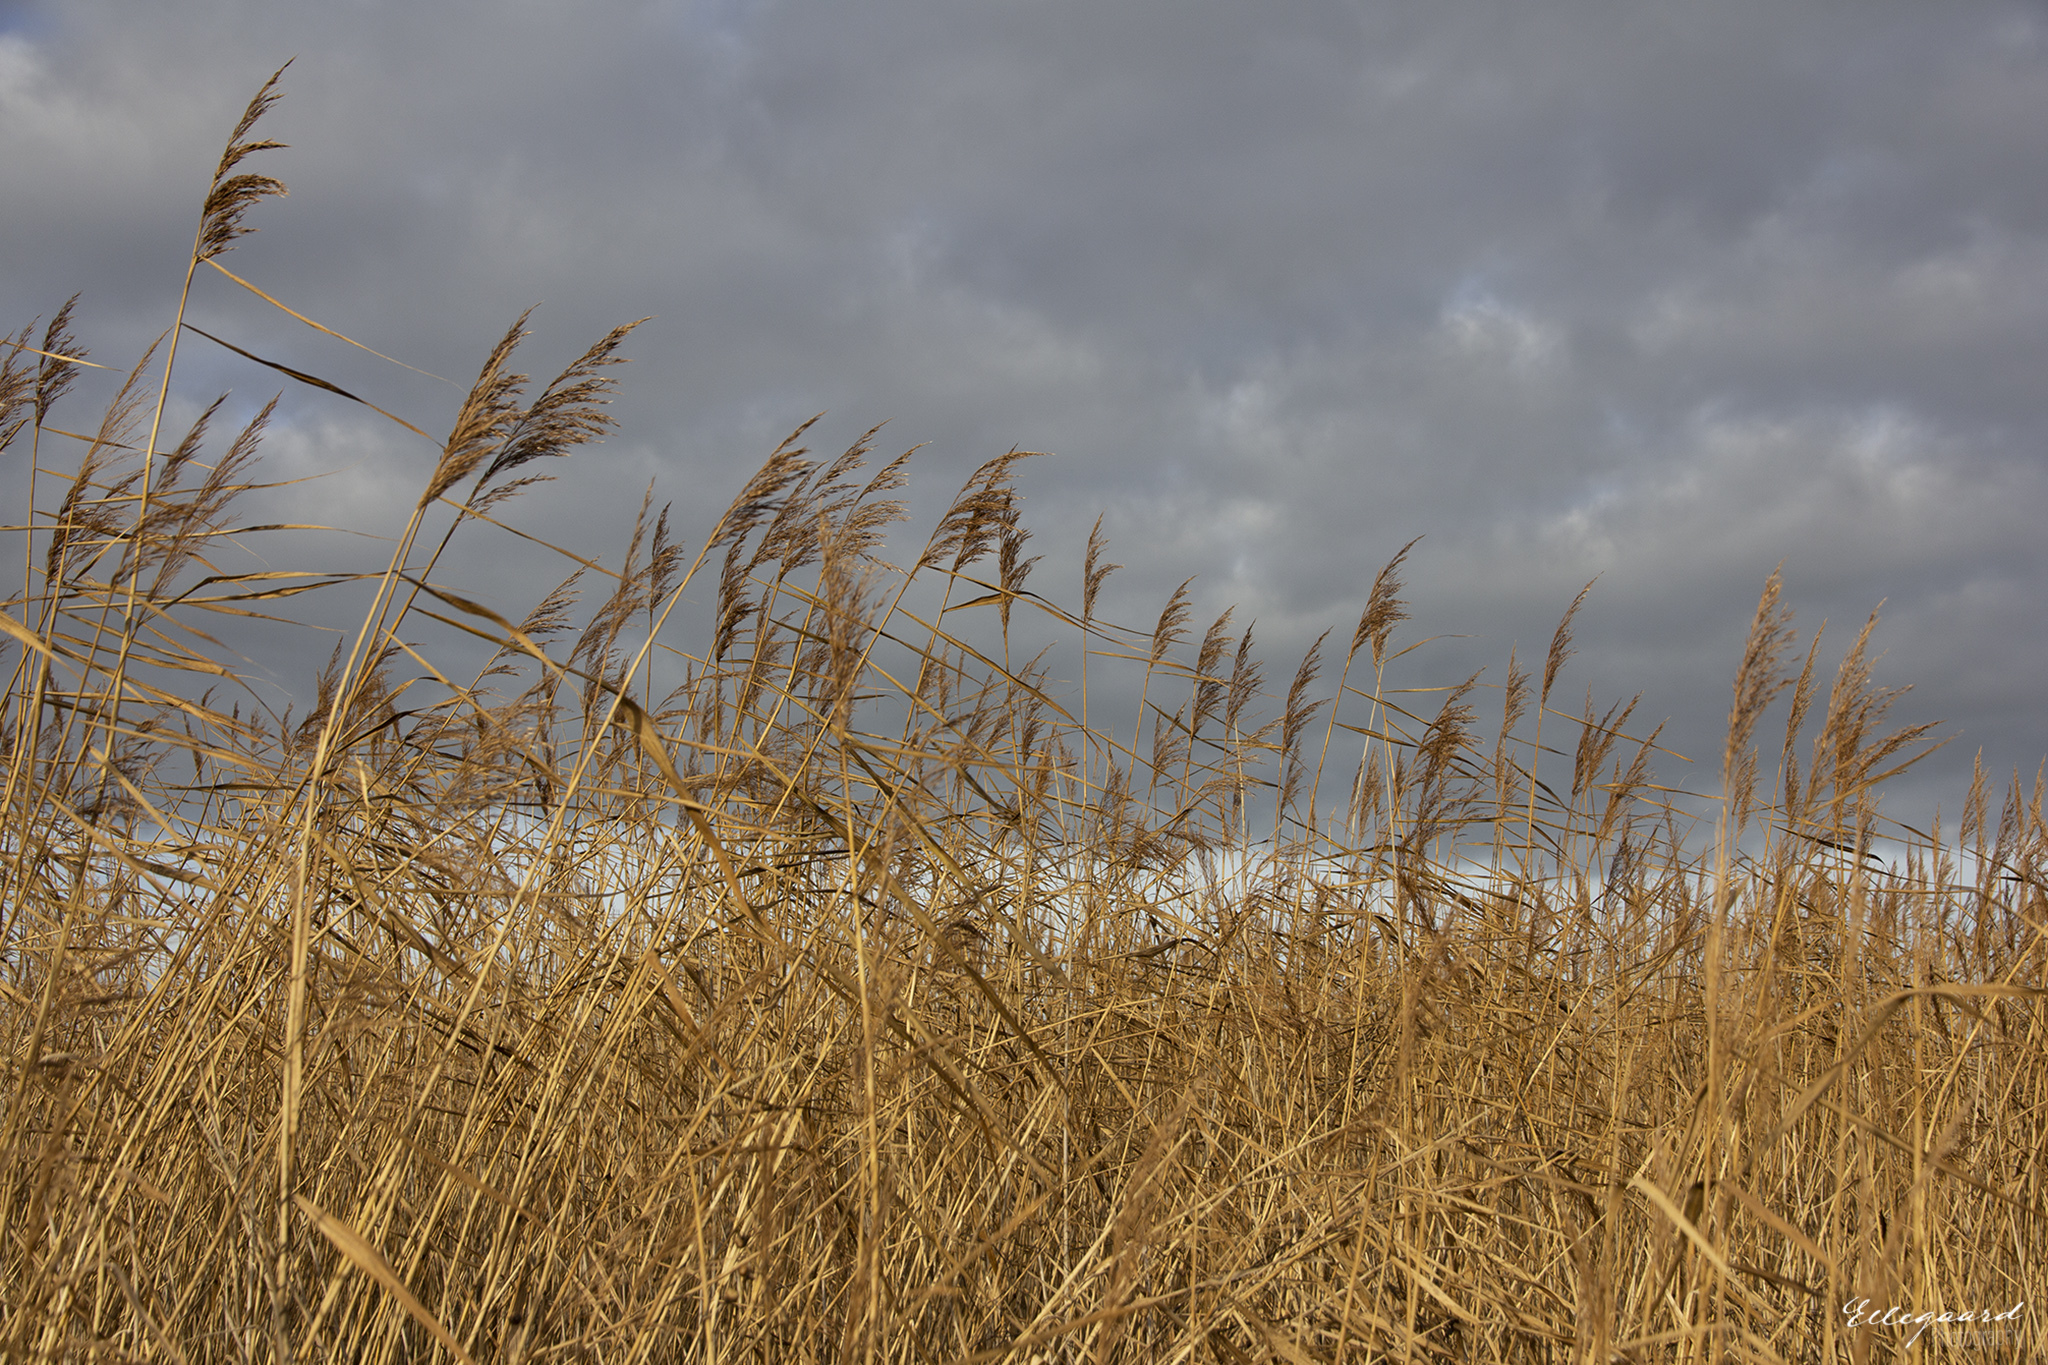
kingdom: Plantae
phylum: Tracheophyta
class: Liliopsida
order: Poales
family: Poaceae
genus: Phragmites
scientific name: Phragmites australis
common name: Common reed
